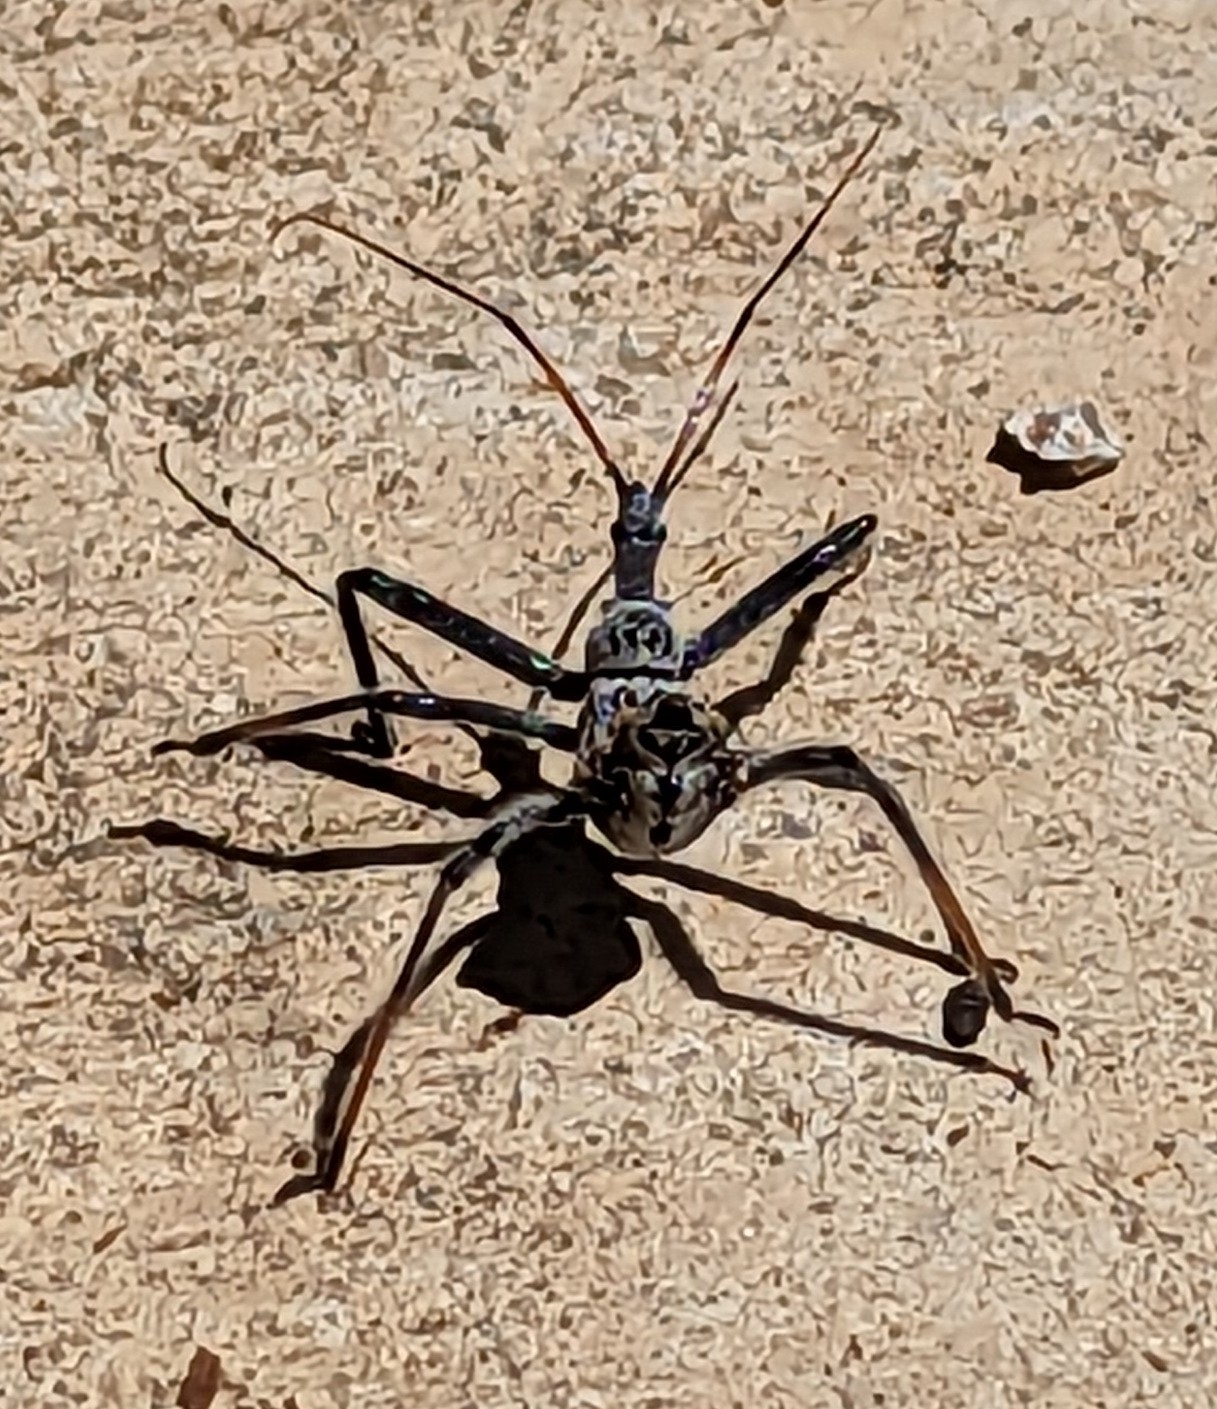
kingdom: Animalia
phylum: Arthropoda
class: Insecta
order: Hemiptera
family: Reduviidae
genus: Arilus
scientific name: Arilus cristatus
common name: North american wheel bug
